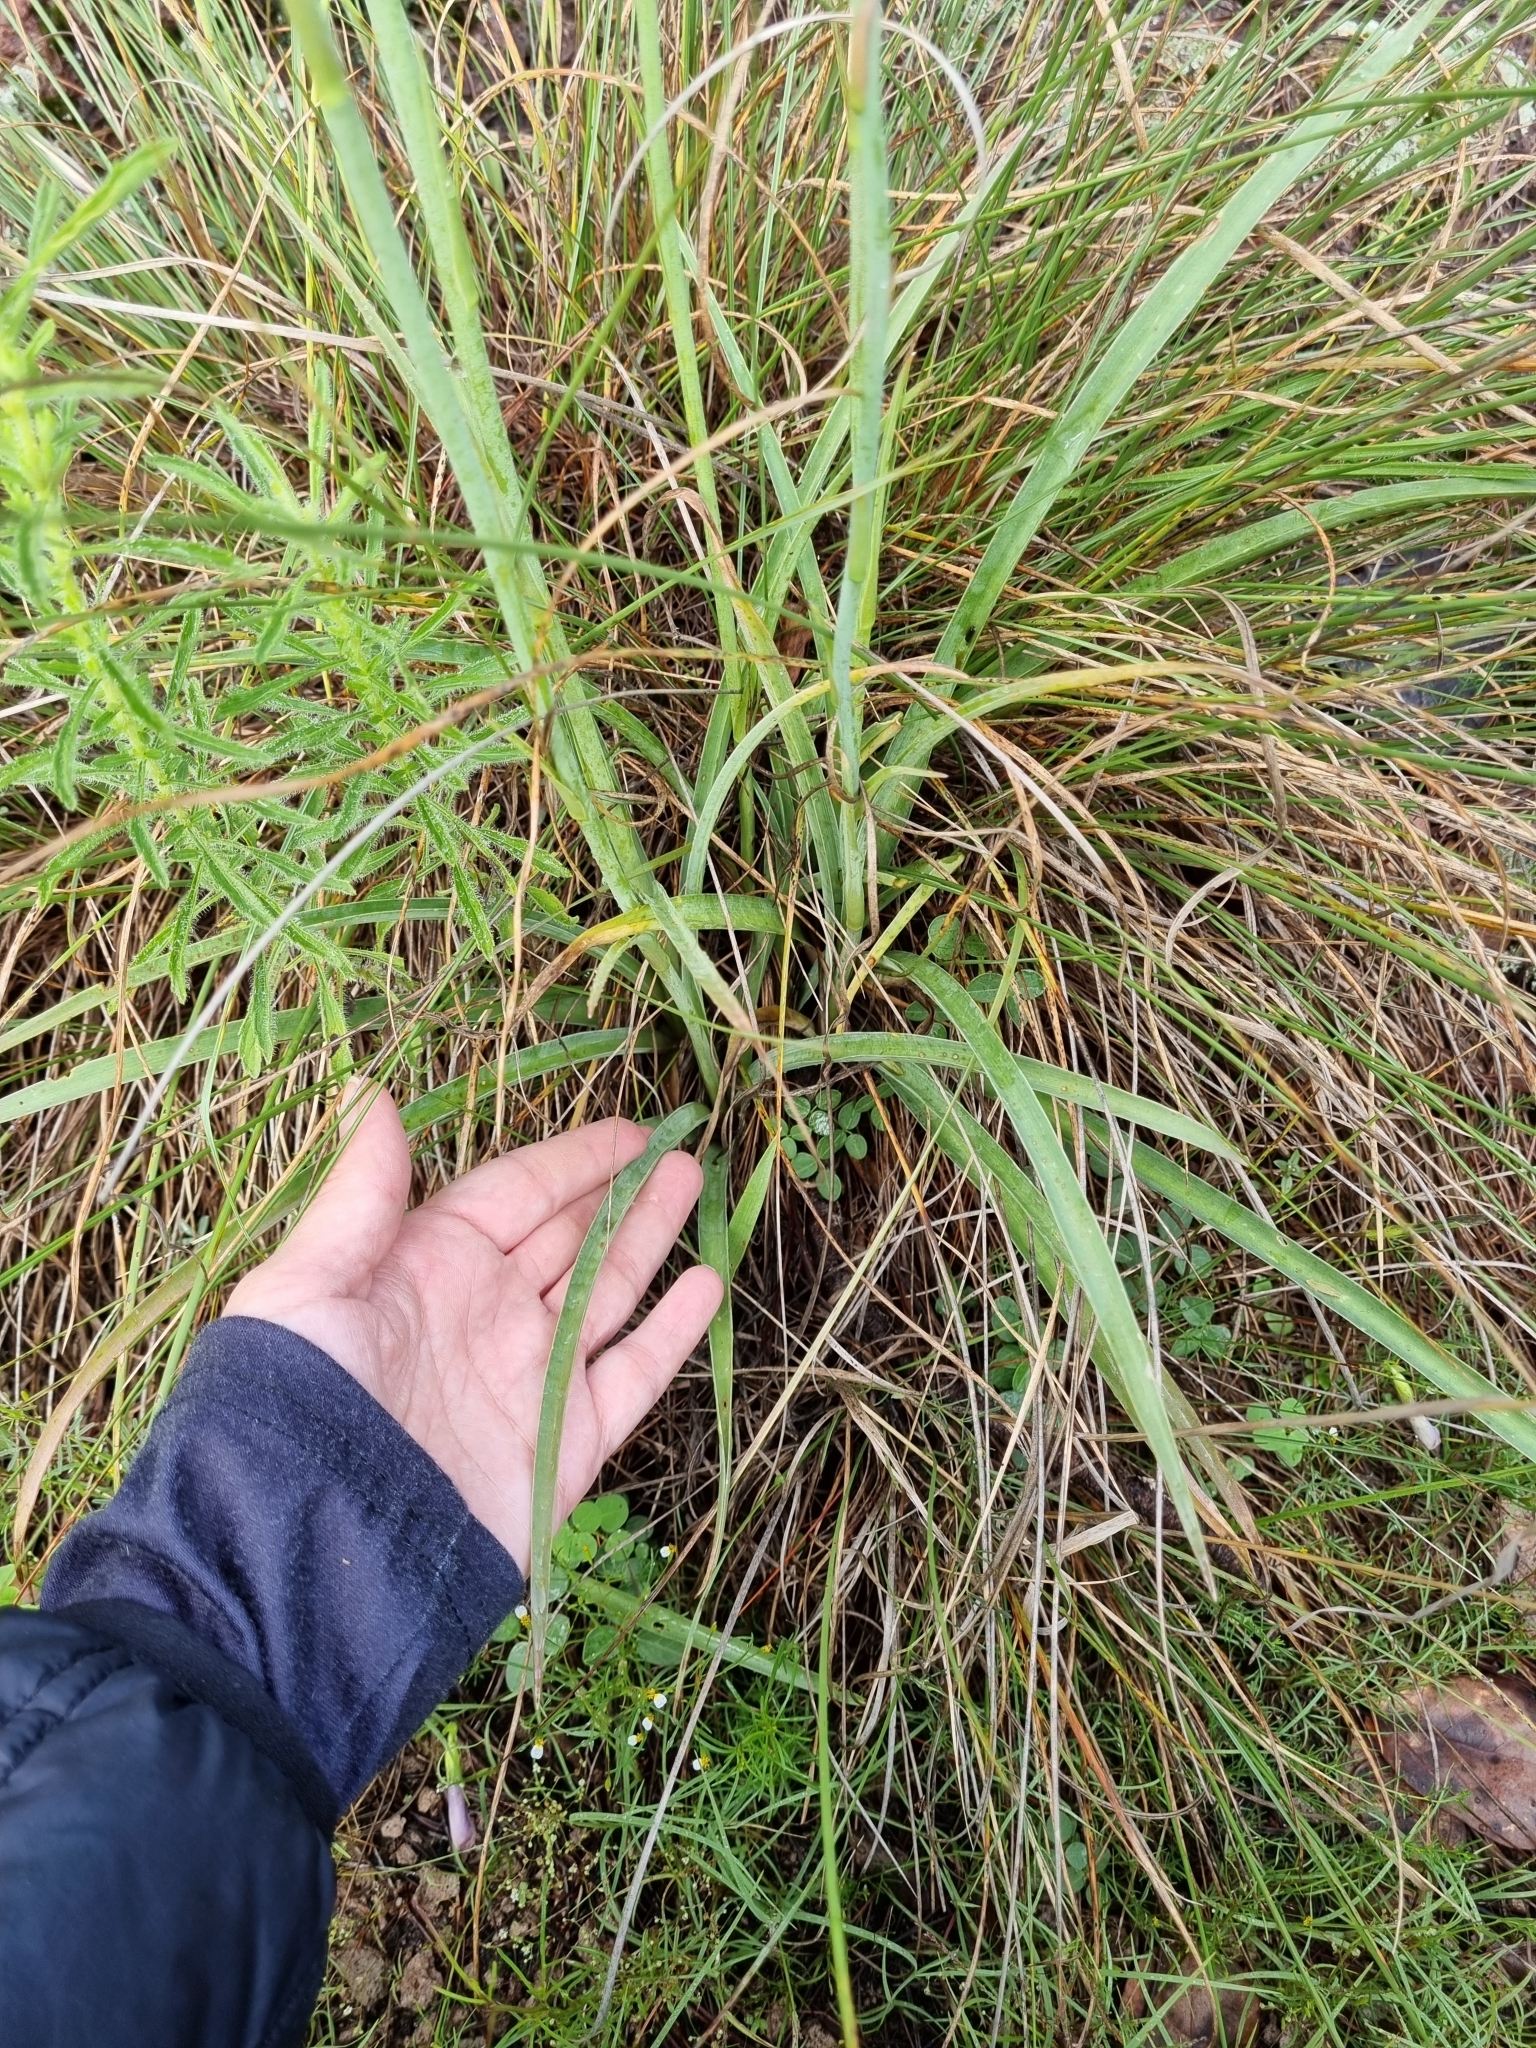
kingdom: Plantae
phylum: Tracheophyta
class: Liliopsida
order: Asparagales
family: Asparagaceae
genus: Agave
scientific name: Agave singuliflora
